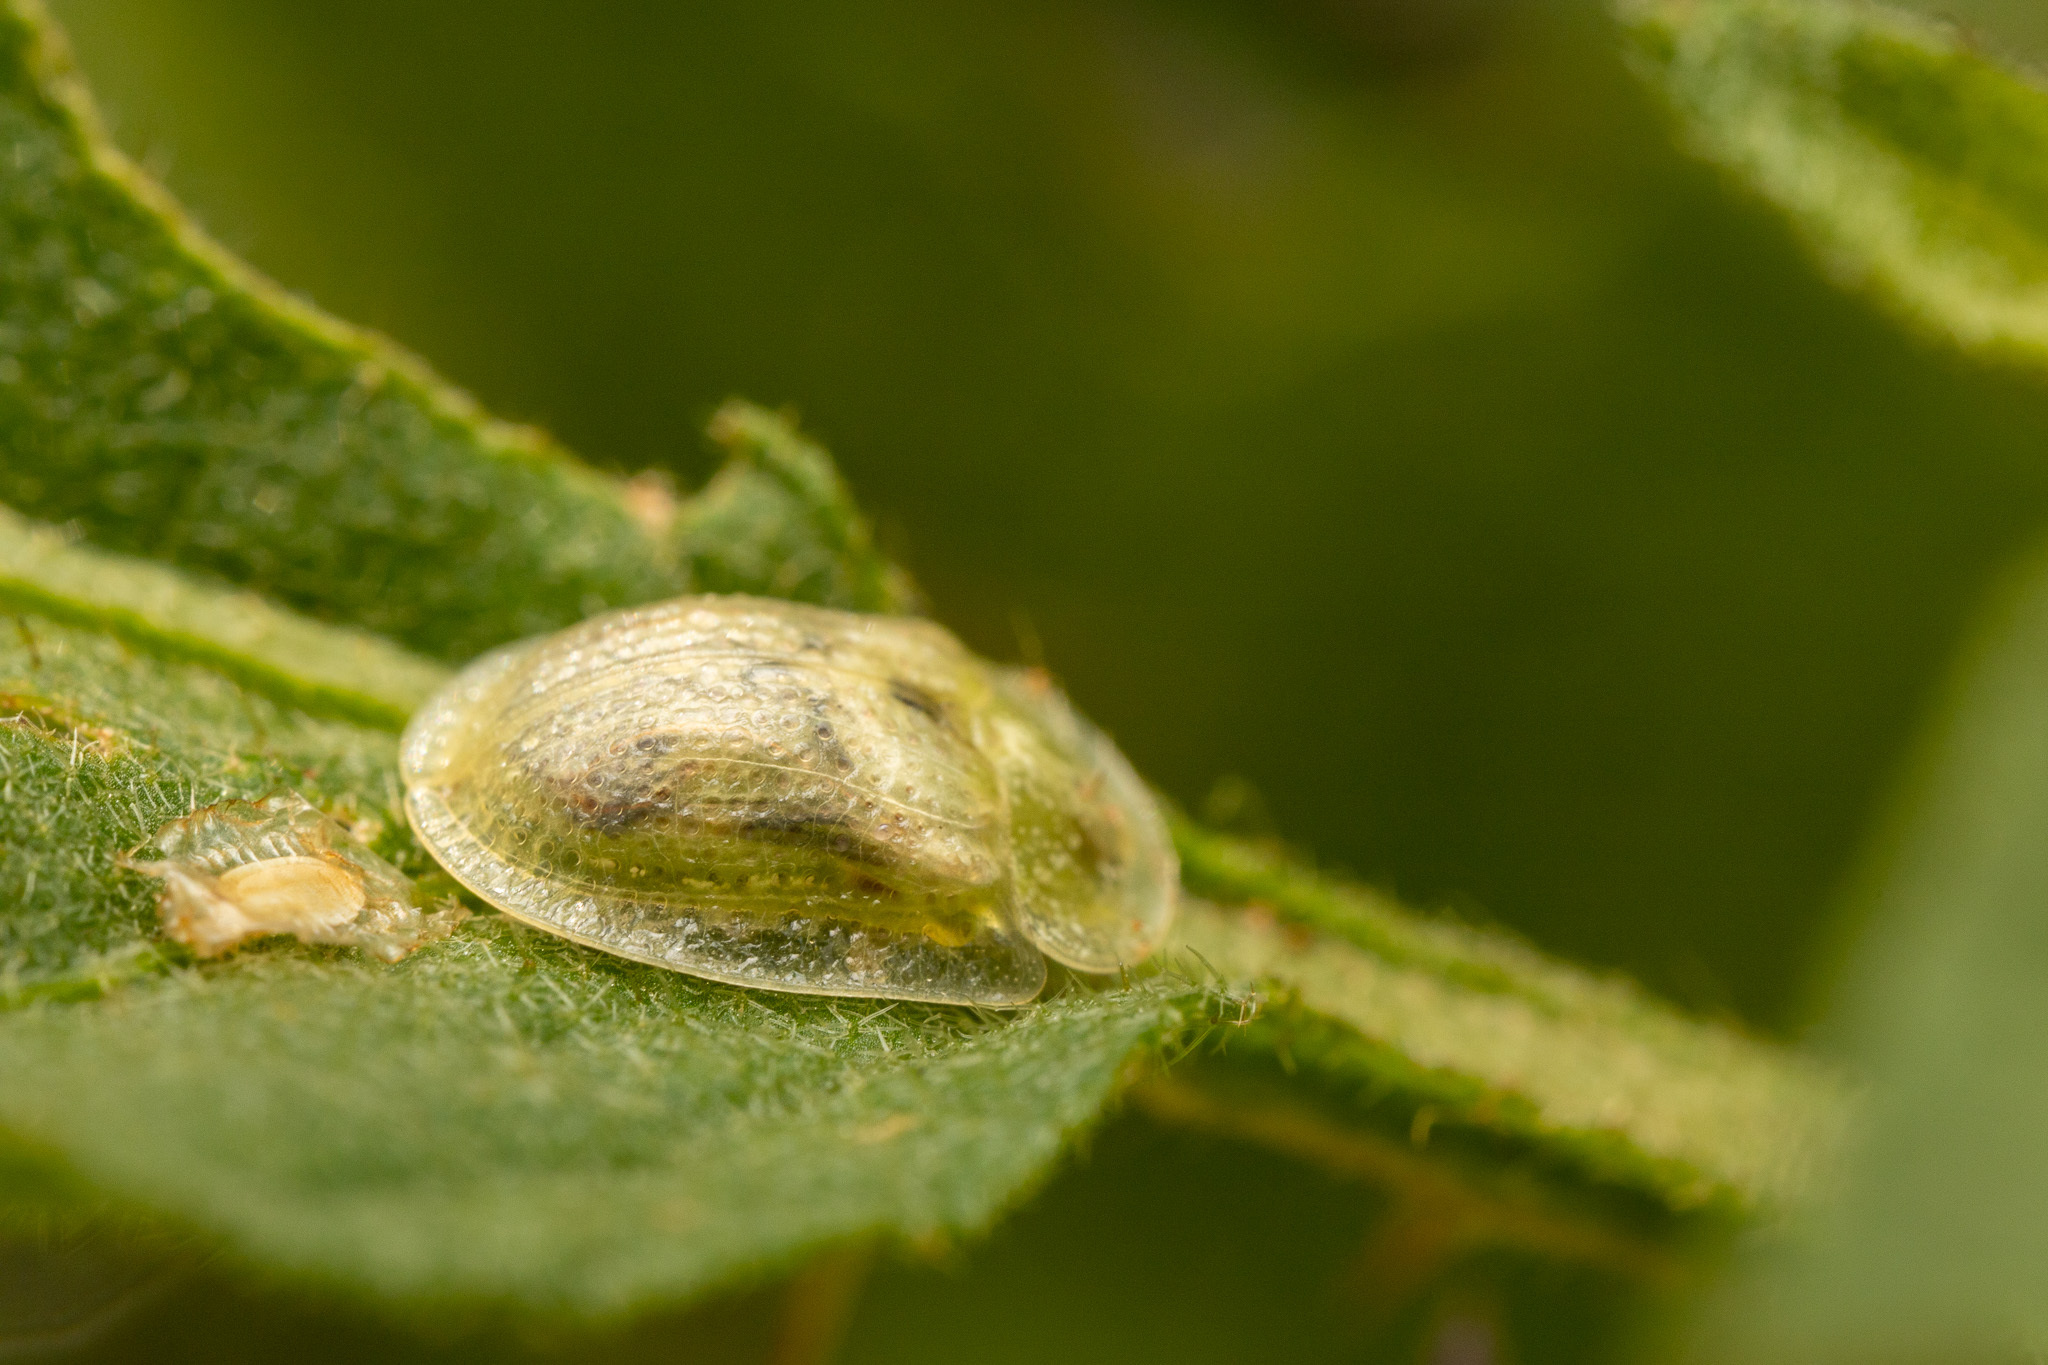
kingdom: Animalia
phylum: Arthropoda
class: Insecta
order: Coleoptera
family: Chrysomelidae
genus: Gratiana
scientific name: Gratiana pallidula
